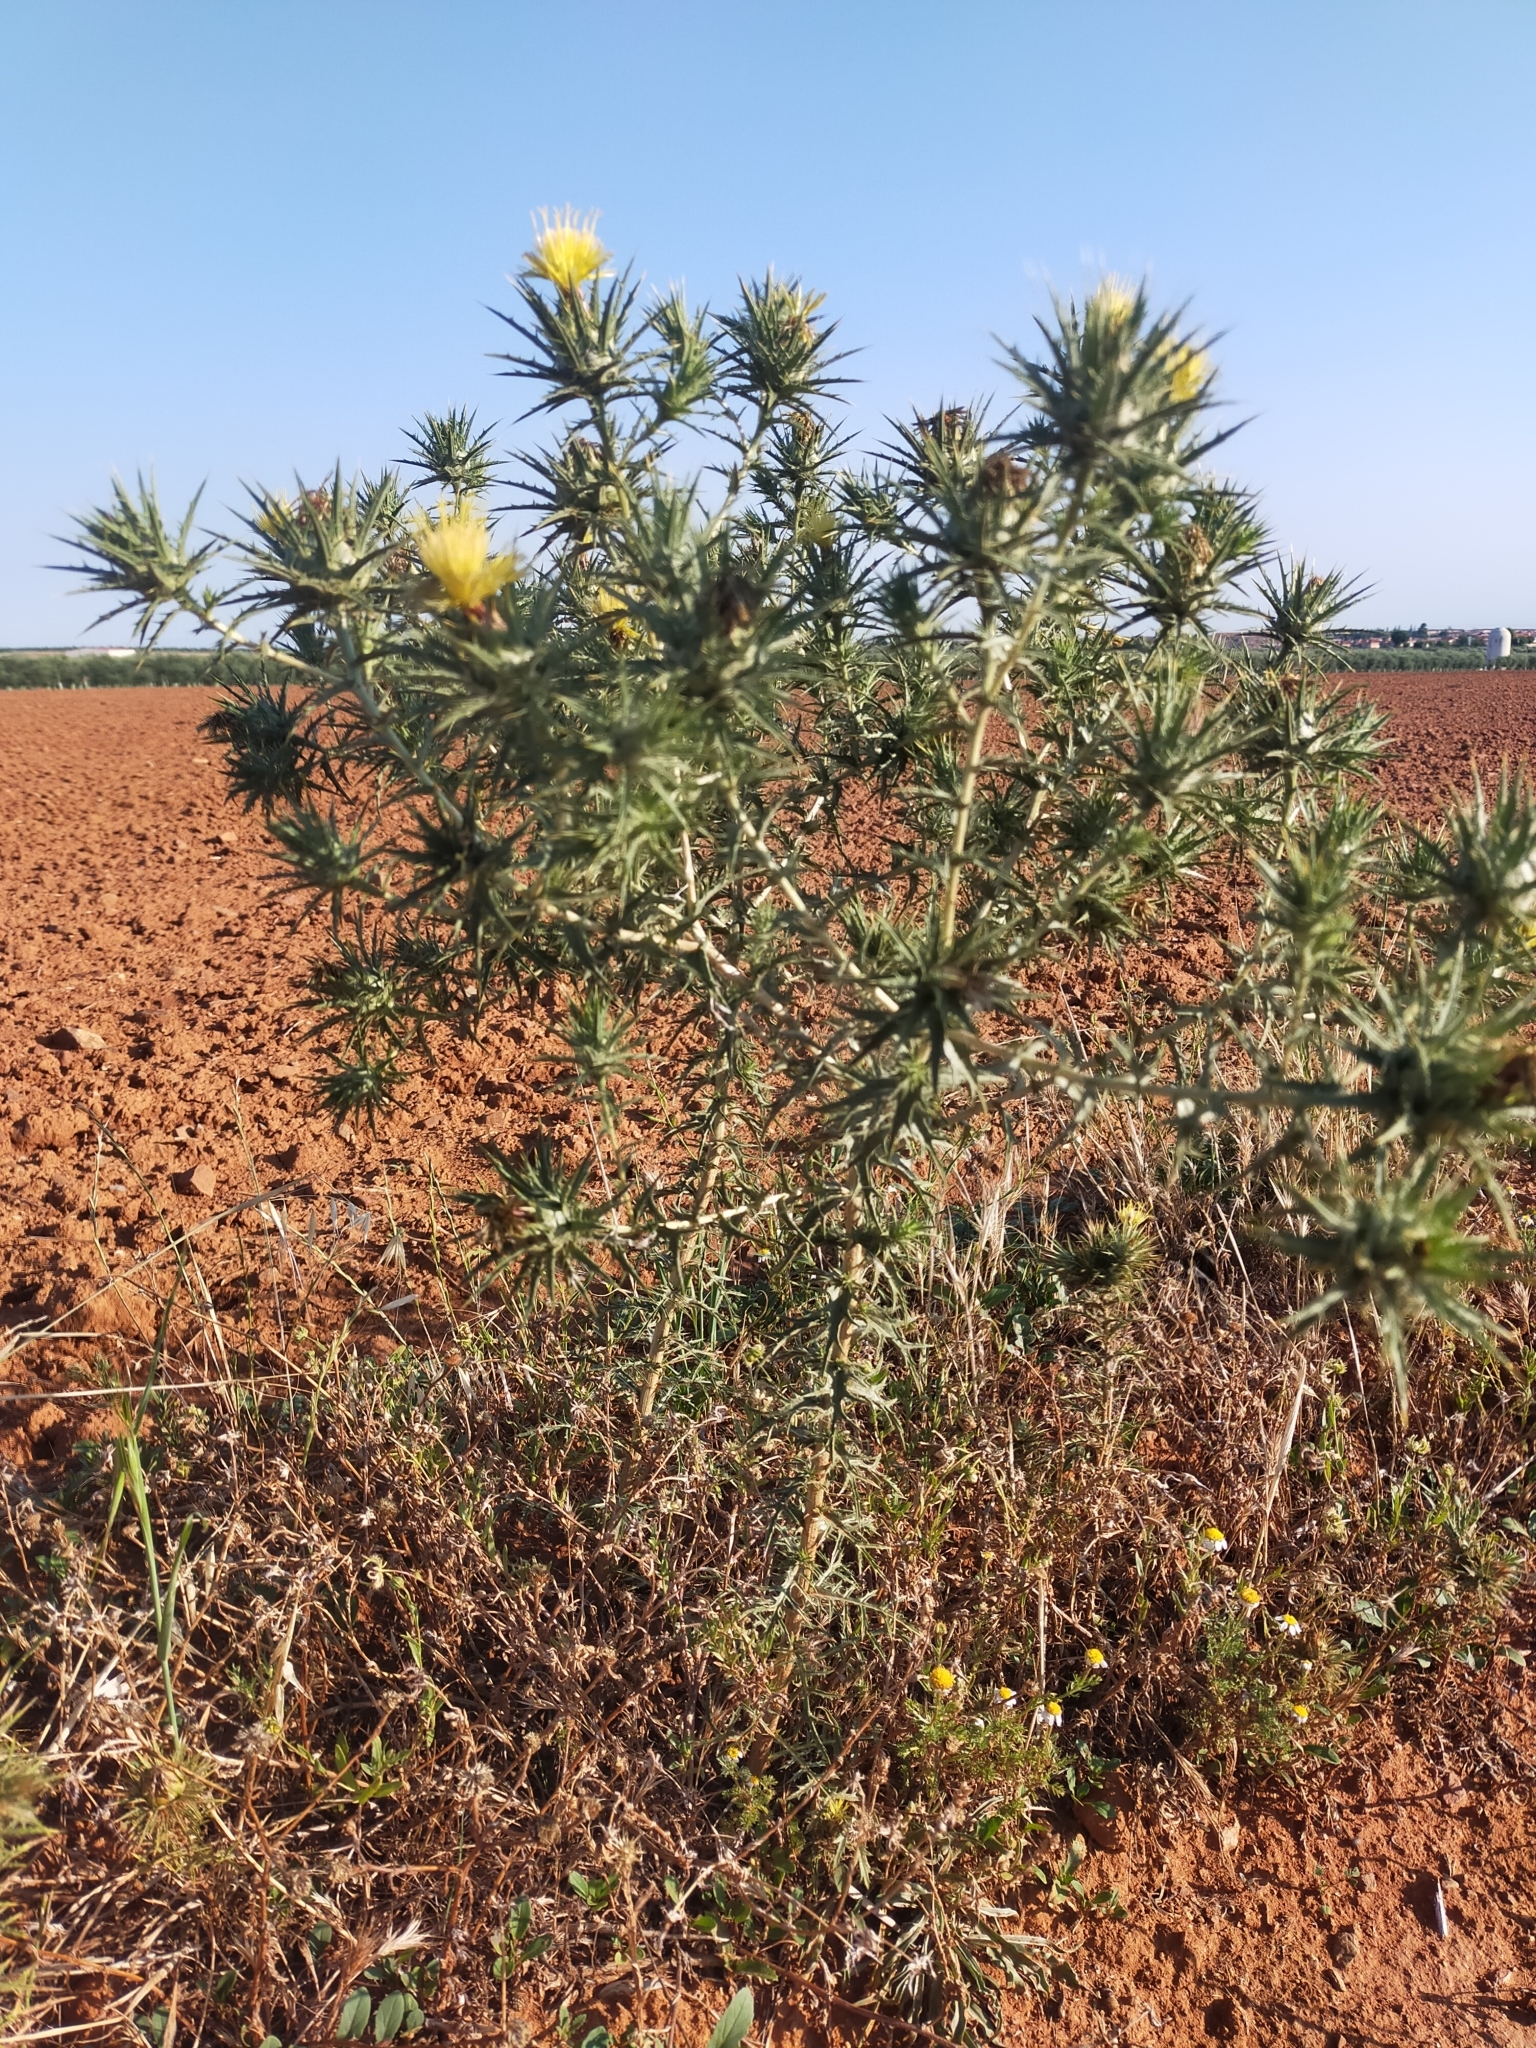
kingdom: Plantae
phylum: Tracheophyta
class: Magnoliopsida
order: Asterales
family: Asteraceae
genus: Carthamus
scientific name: Carthamus lanatus
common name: Downy safflower
